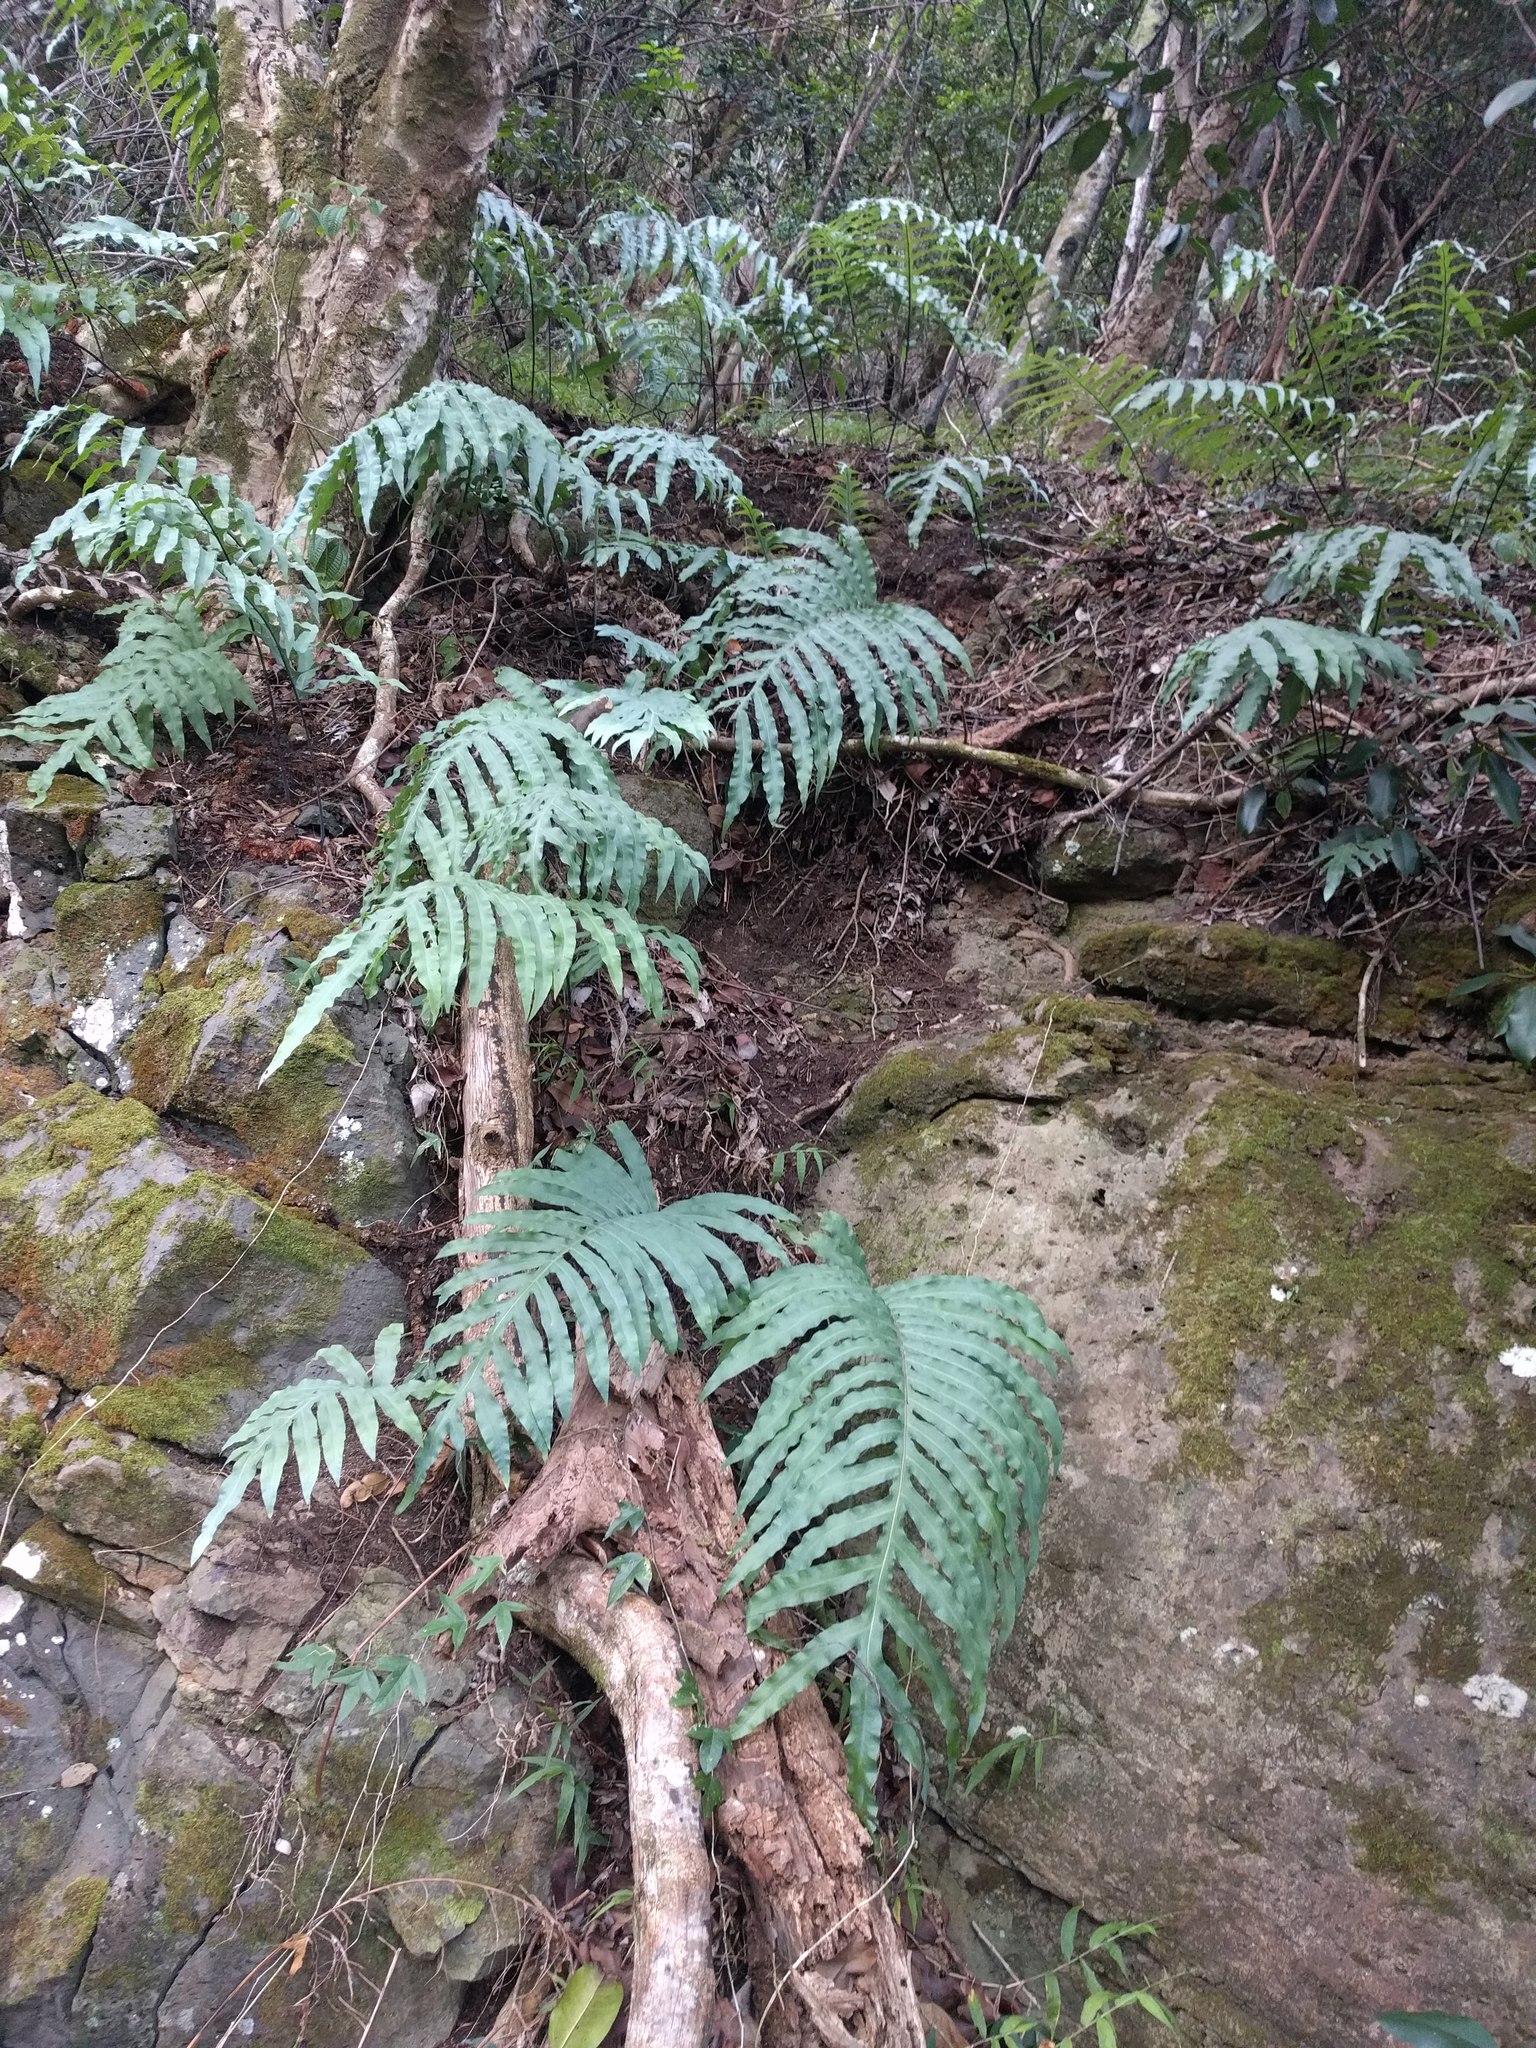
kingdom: Plantae
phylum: Tracheophyta
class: Polypodiopsida
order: Polypodiales
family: Polypodiaceae
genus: Phlebodium
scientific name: Phlebodium aureum
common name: Gold-foot fern
